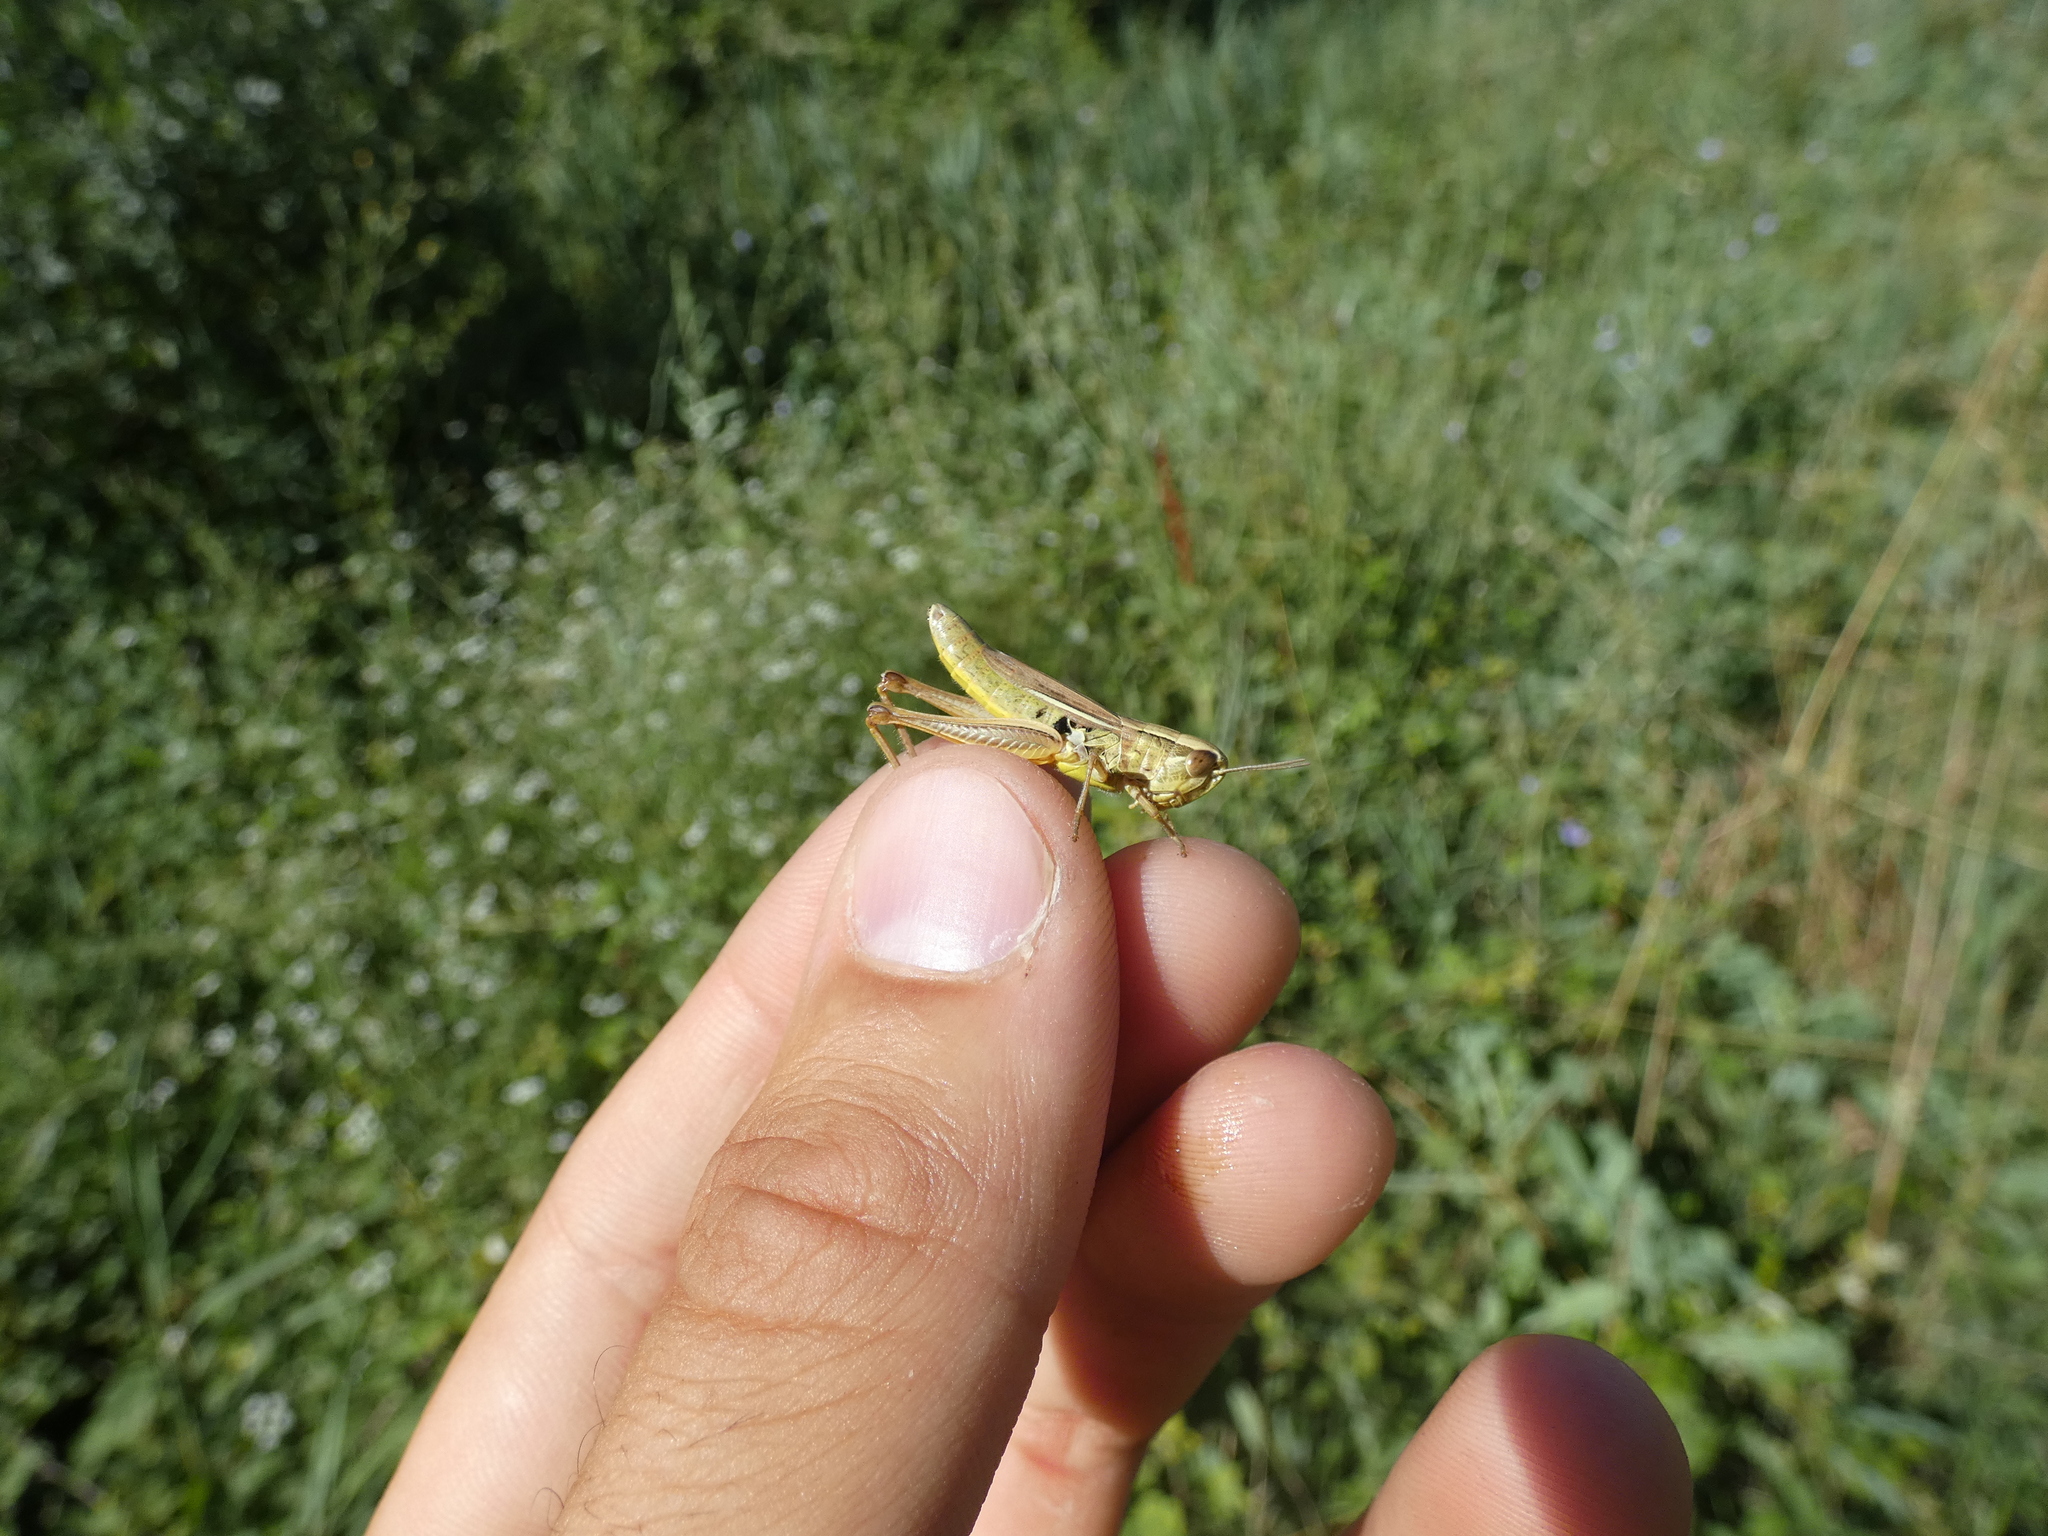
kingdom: Animalia
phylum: Arthropoda
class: Insecta
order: Orthoptera
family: Acrididae
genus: Euchorthippus
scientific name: Euchorthippus declivus
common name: Common straw grasshopper
